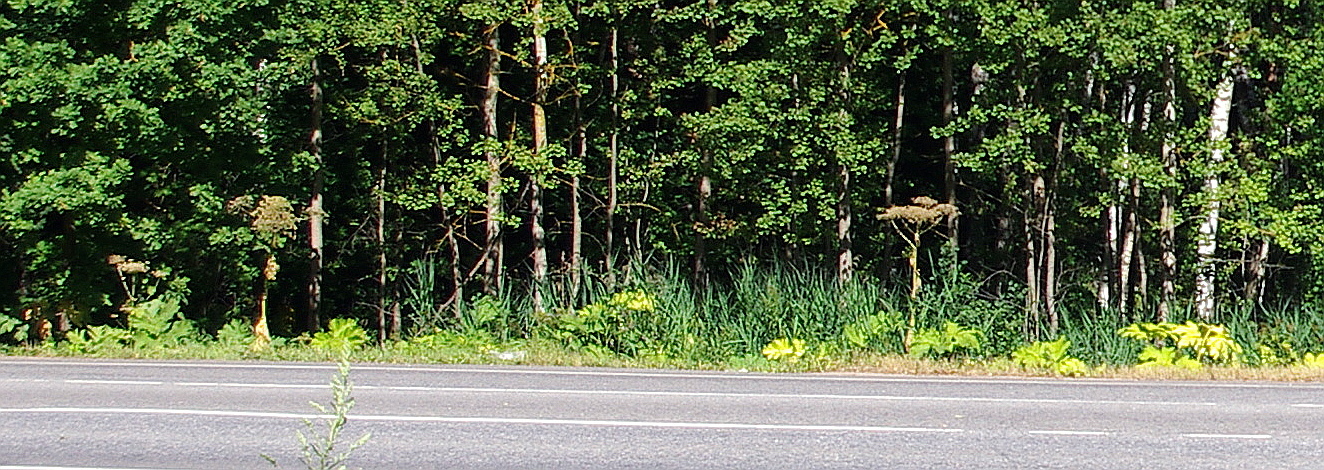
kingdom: Plantae
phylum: Tracheophyta
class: Magnoliopsida
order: Apiales
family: Apiaceae
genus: Heracleum
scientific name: Heracleum sosnowskyi
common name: Sosnowsky's hogweed
